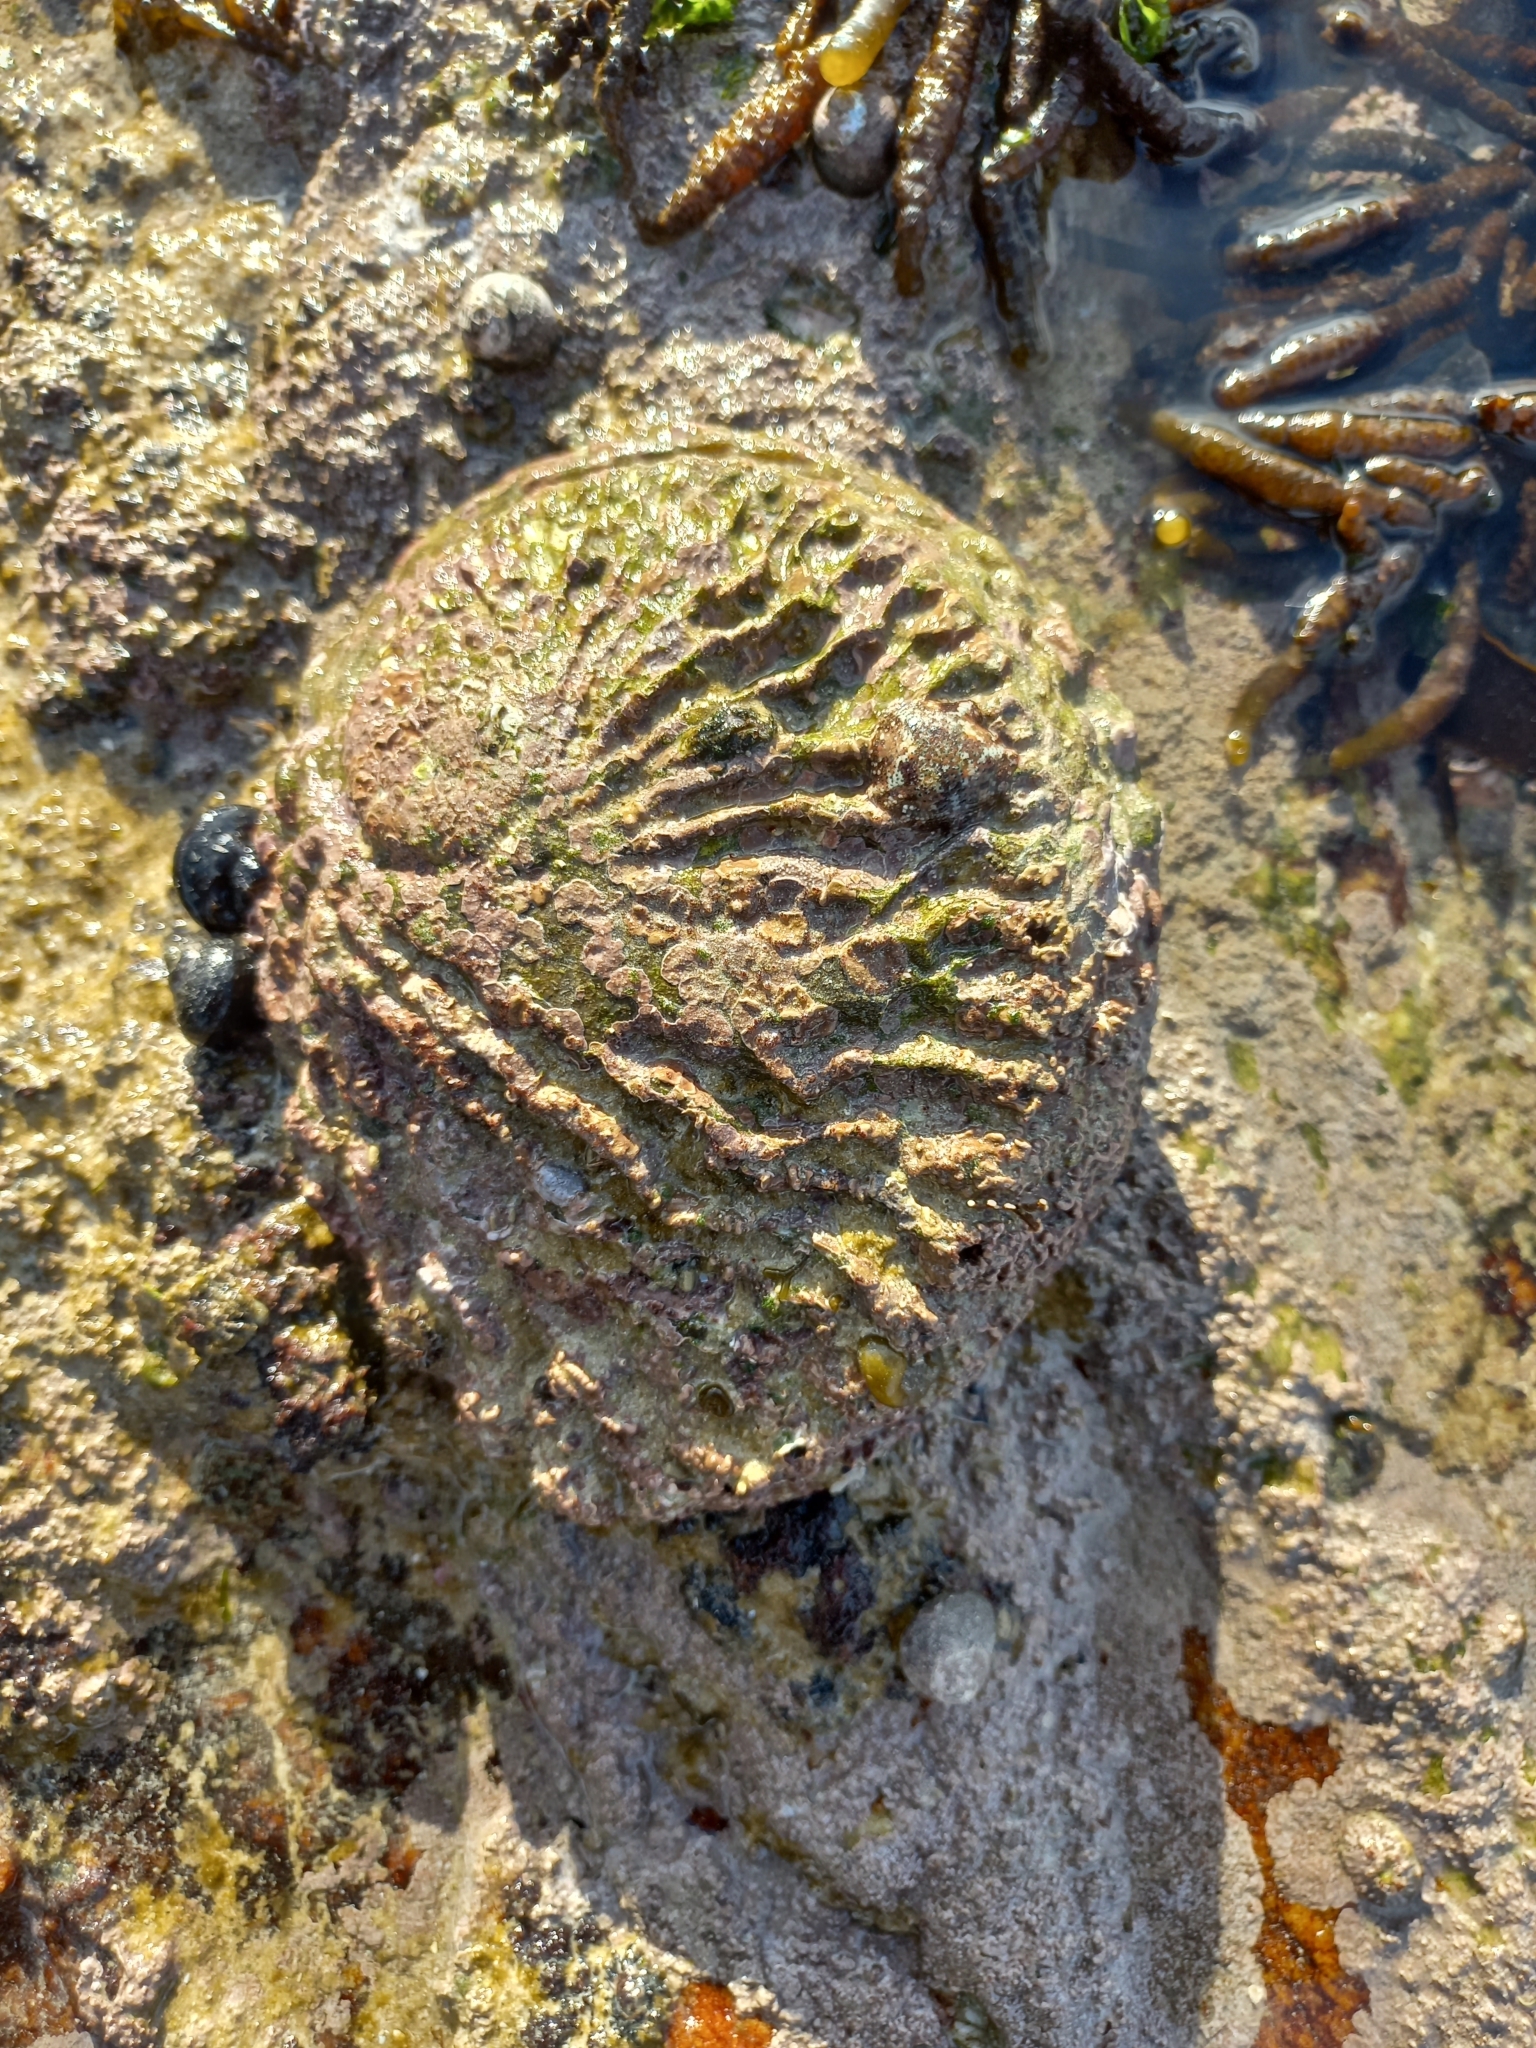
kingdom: Animalia
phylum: Mollusca
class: Gastropoda
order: Lepetellida
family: Haliotidae
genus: Haliotis
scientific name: Haliotis midae
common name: Perlemoen
